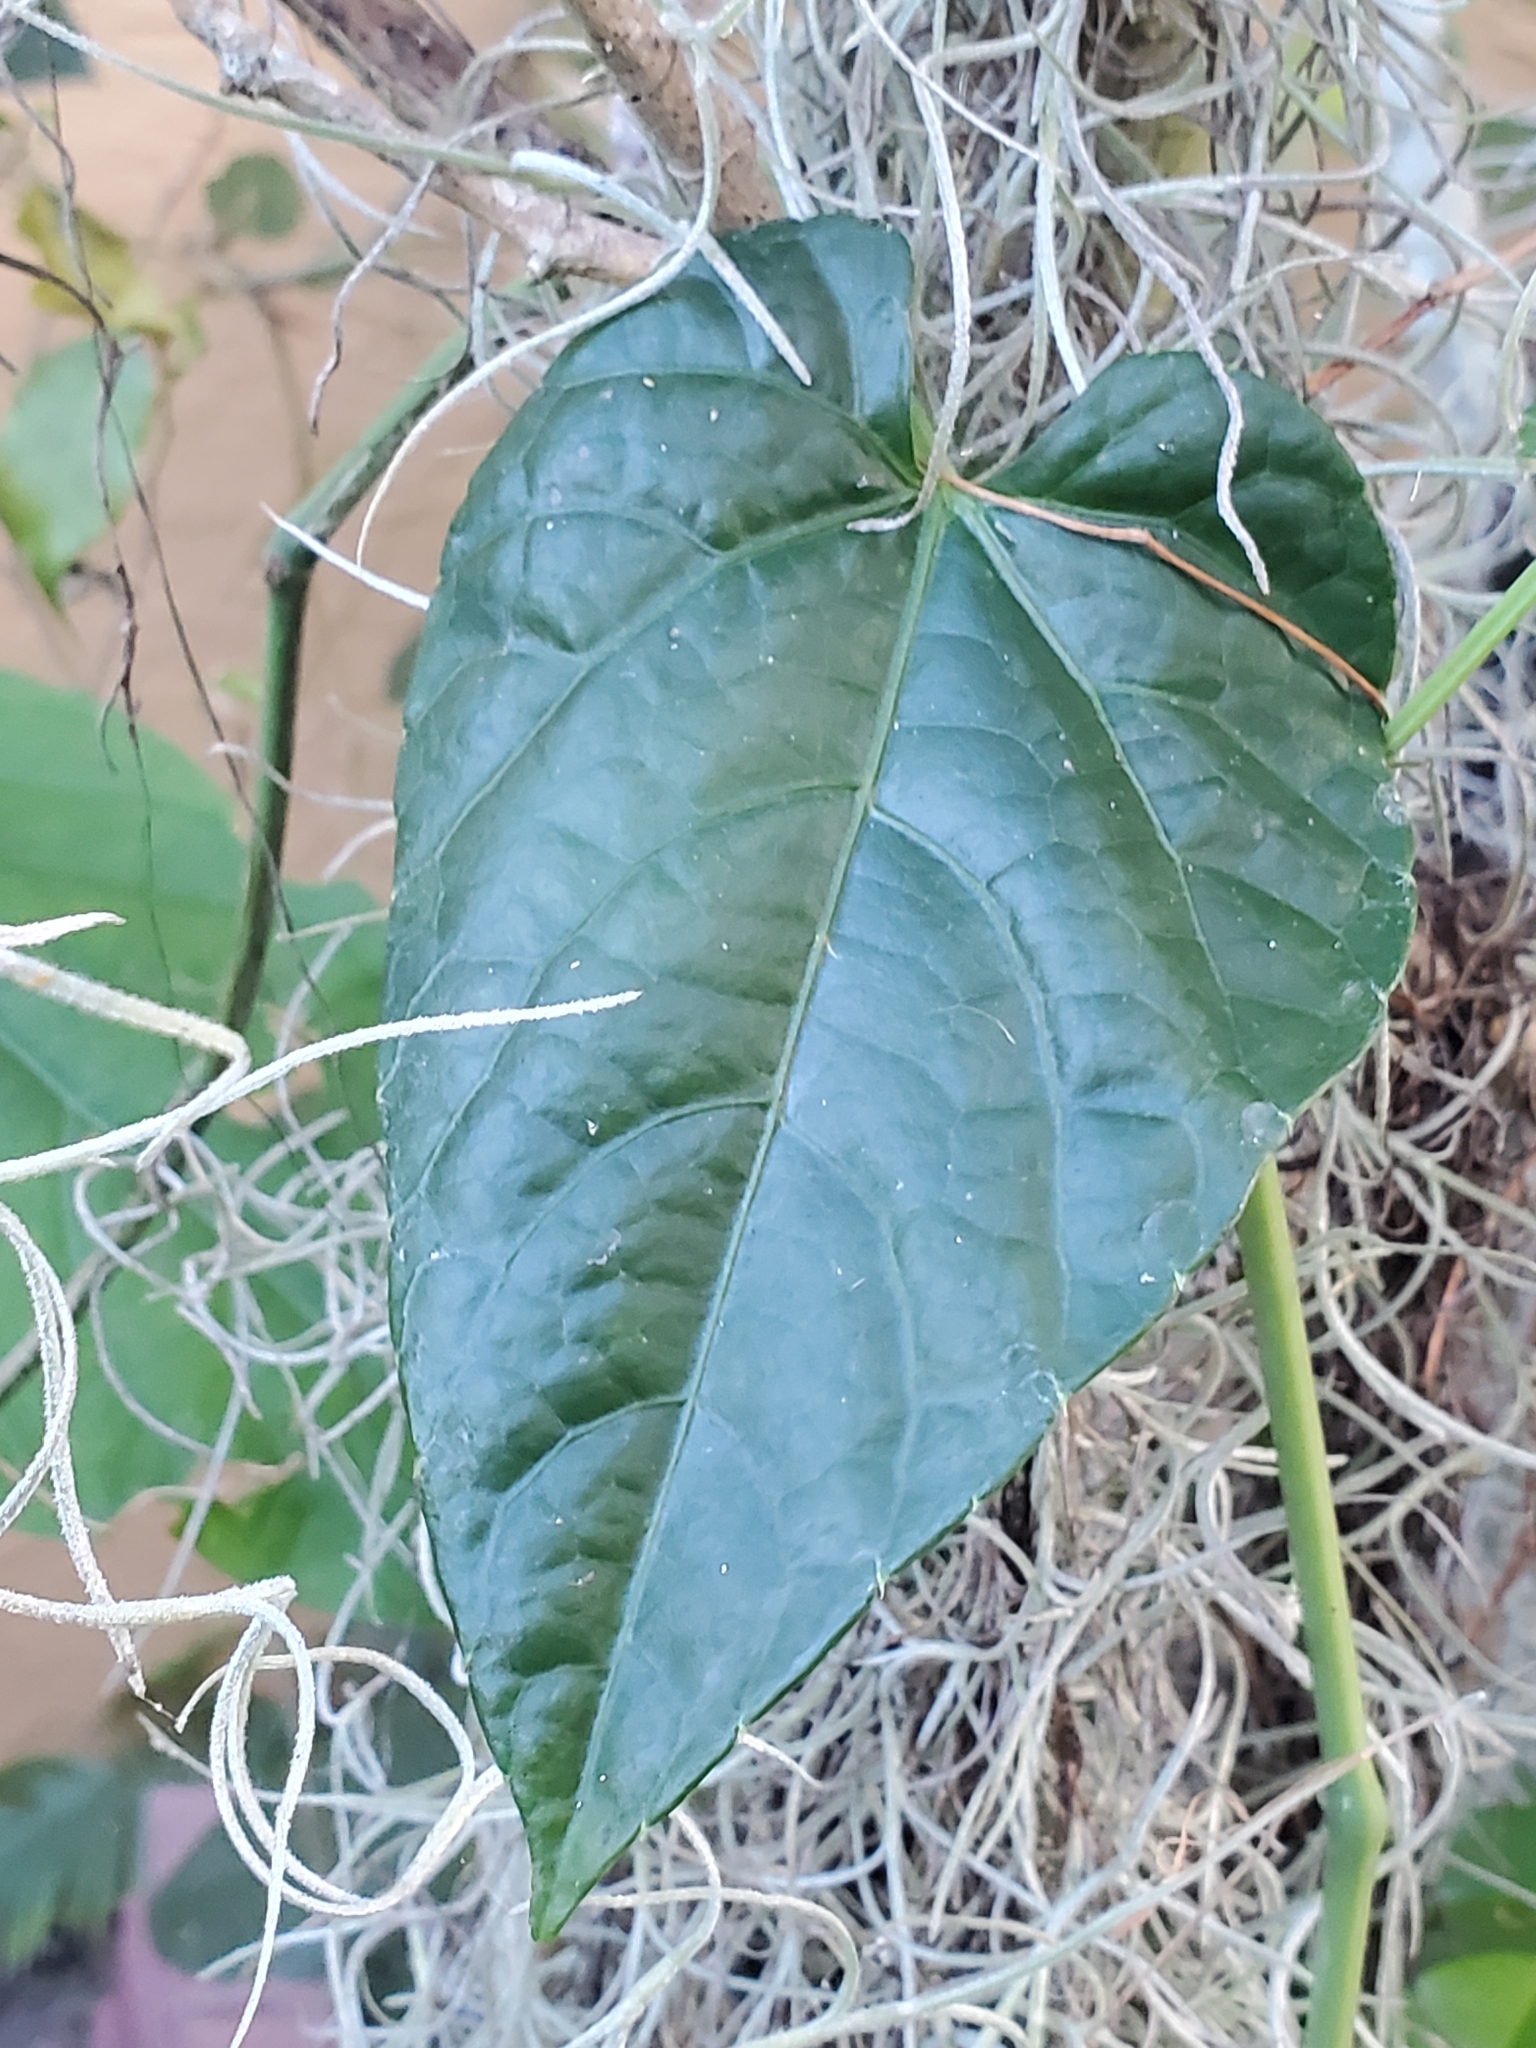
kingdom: Plantae
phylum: Tracheophyta
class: Magnoliopsida
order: Vitales
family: Vitaceae
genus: Cissus
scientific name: Cissus verticillata
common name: Princess vine
